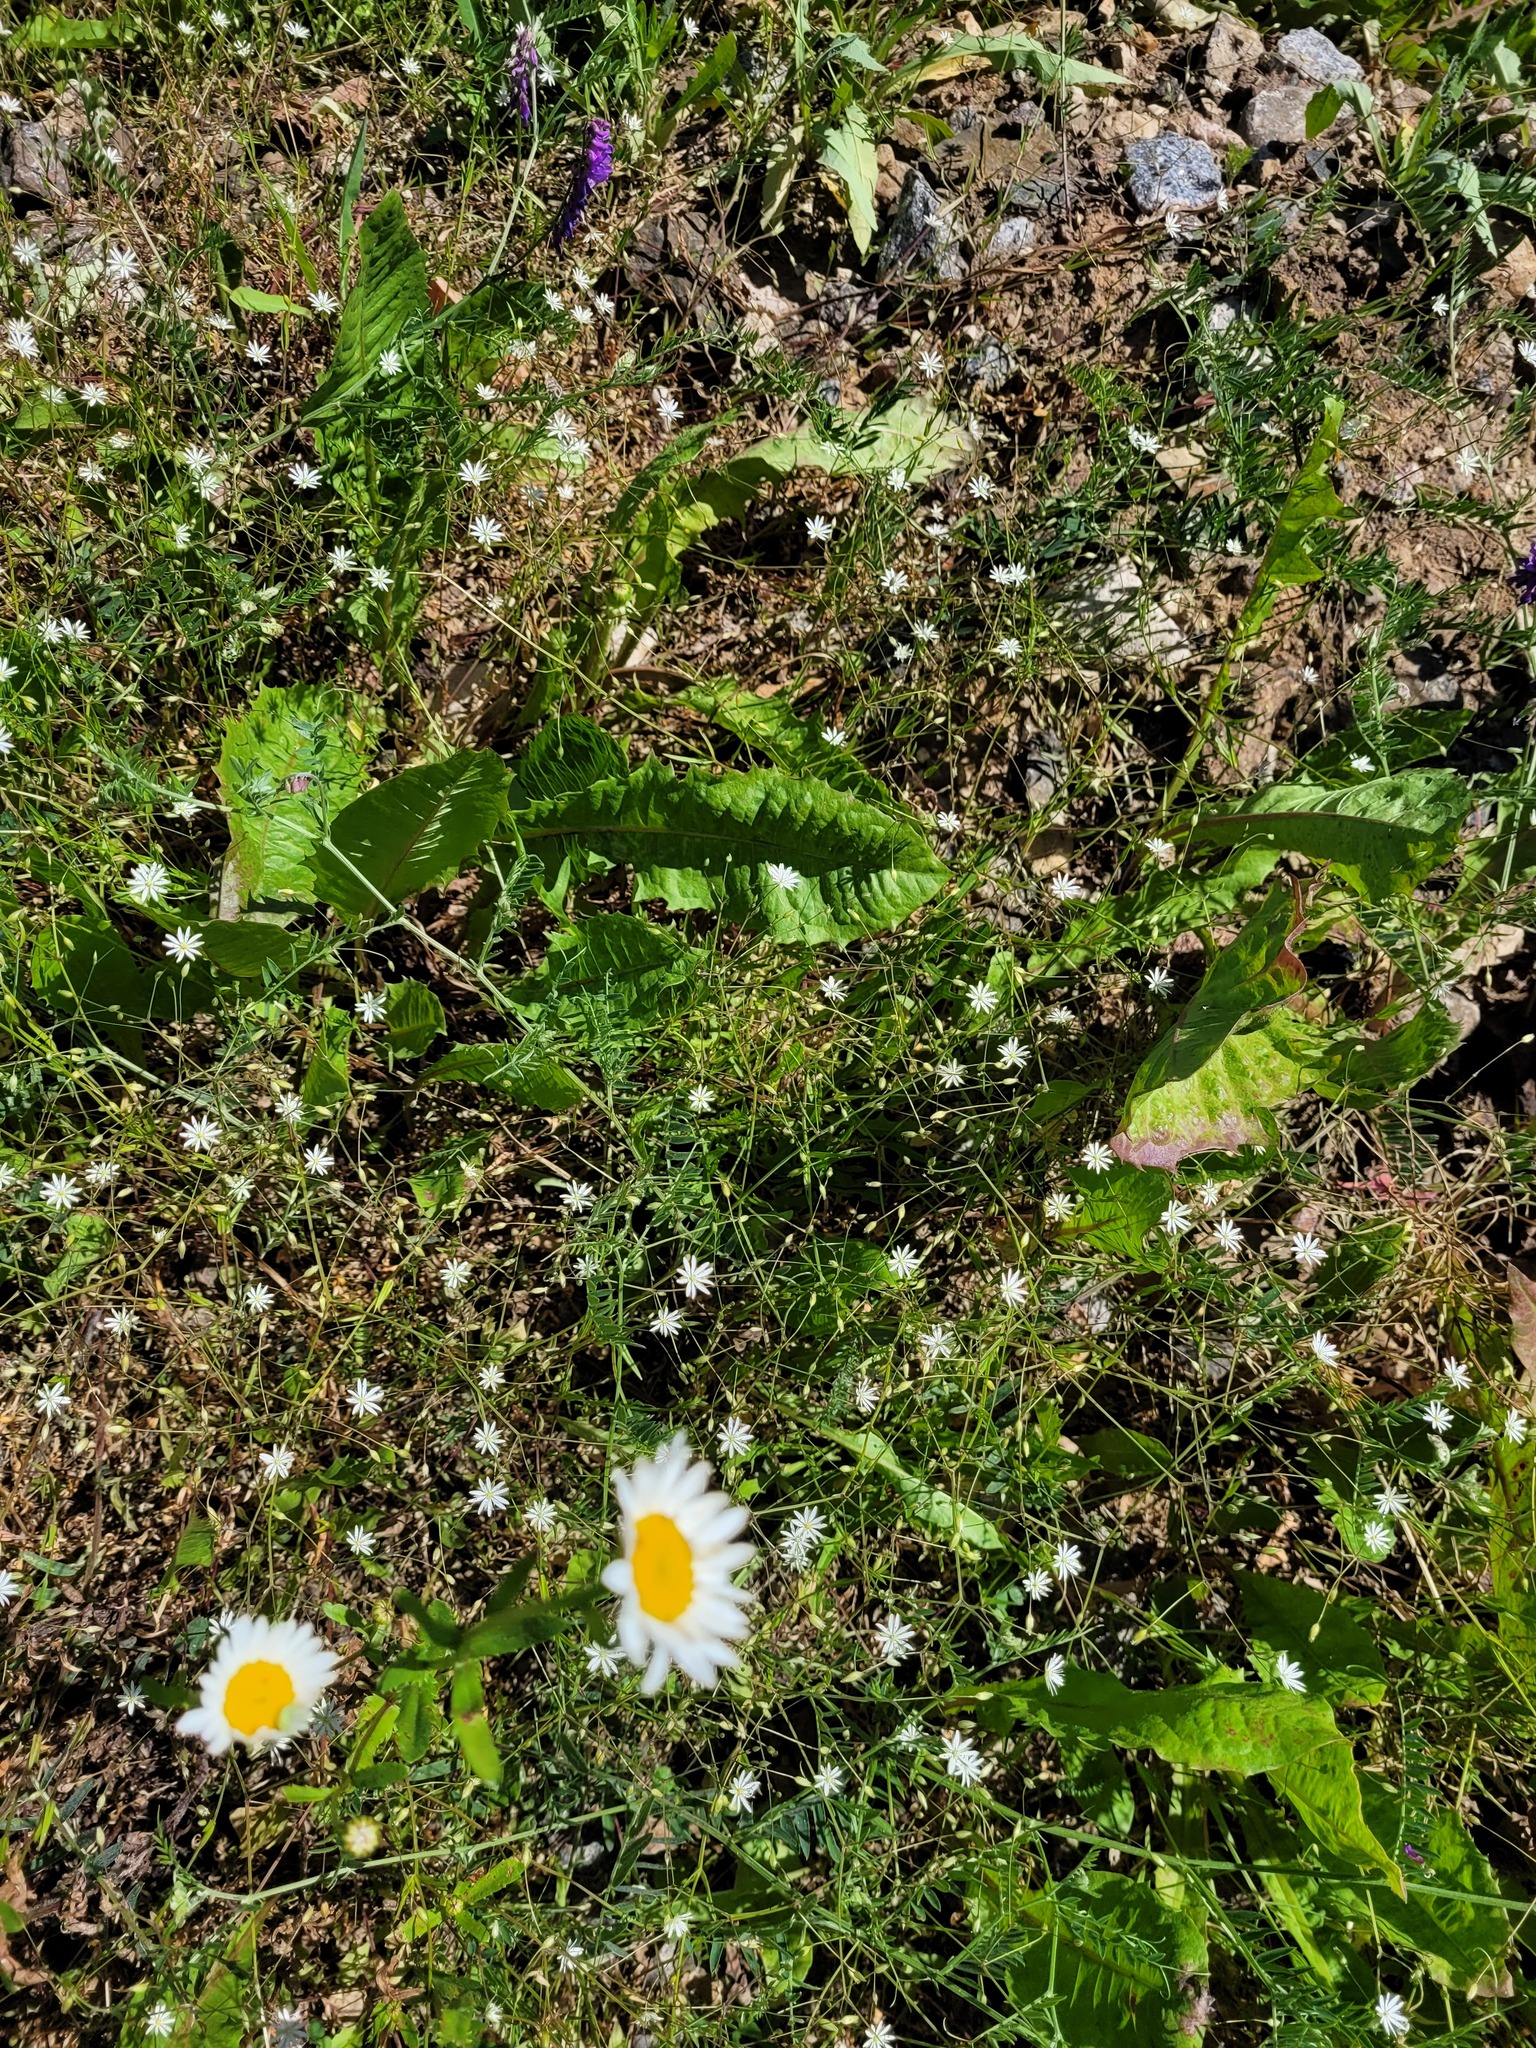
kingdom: Plantae
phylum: Tracheophyta
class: Magnoliopsida
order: Caryophyllales
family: Caryophyllaceae
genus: Stellaria
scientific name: Stellaria graminea
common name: Grass-like starwort
